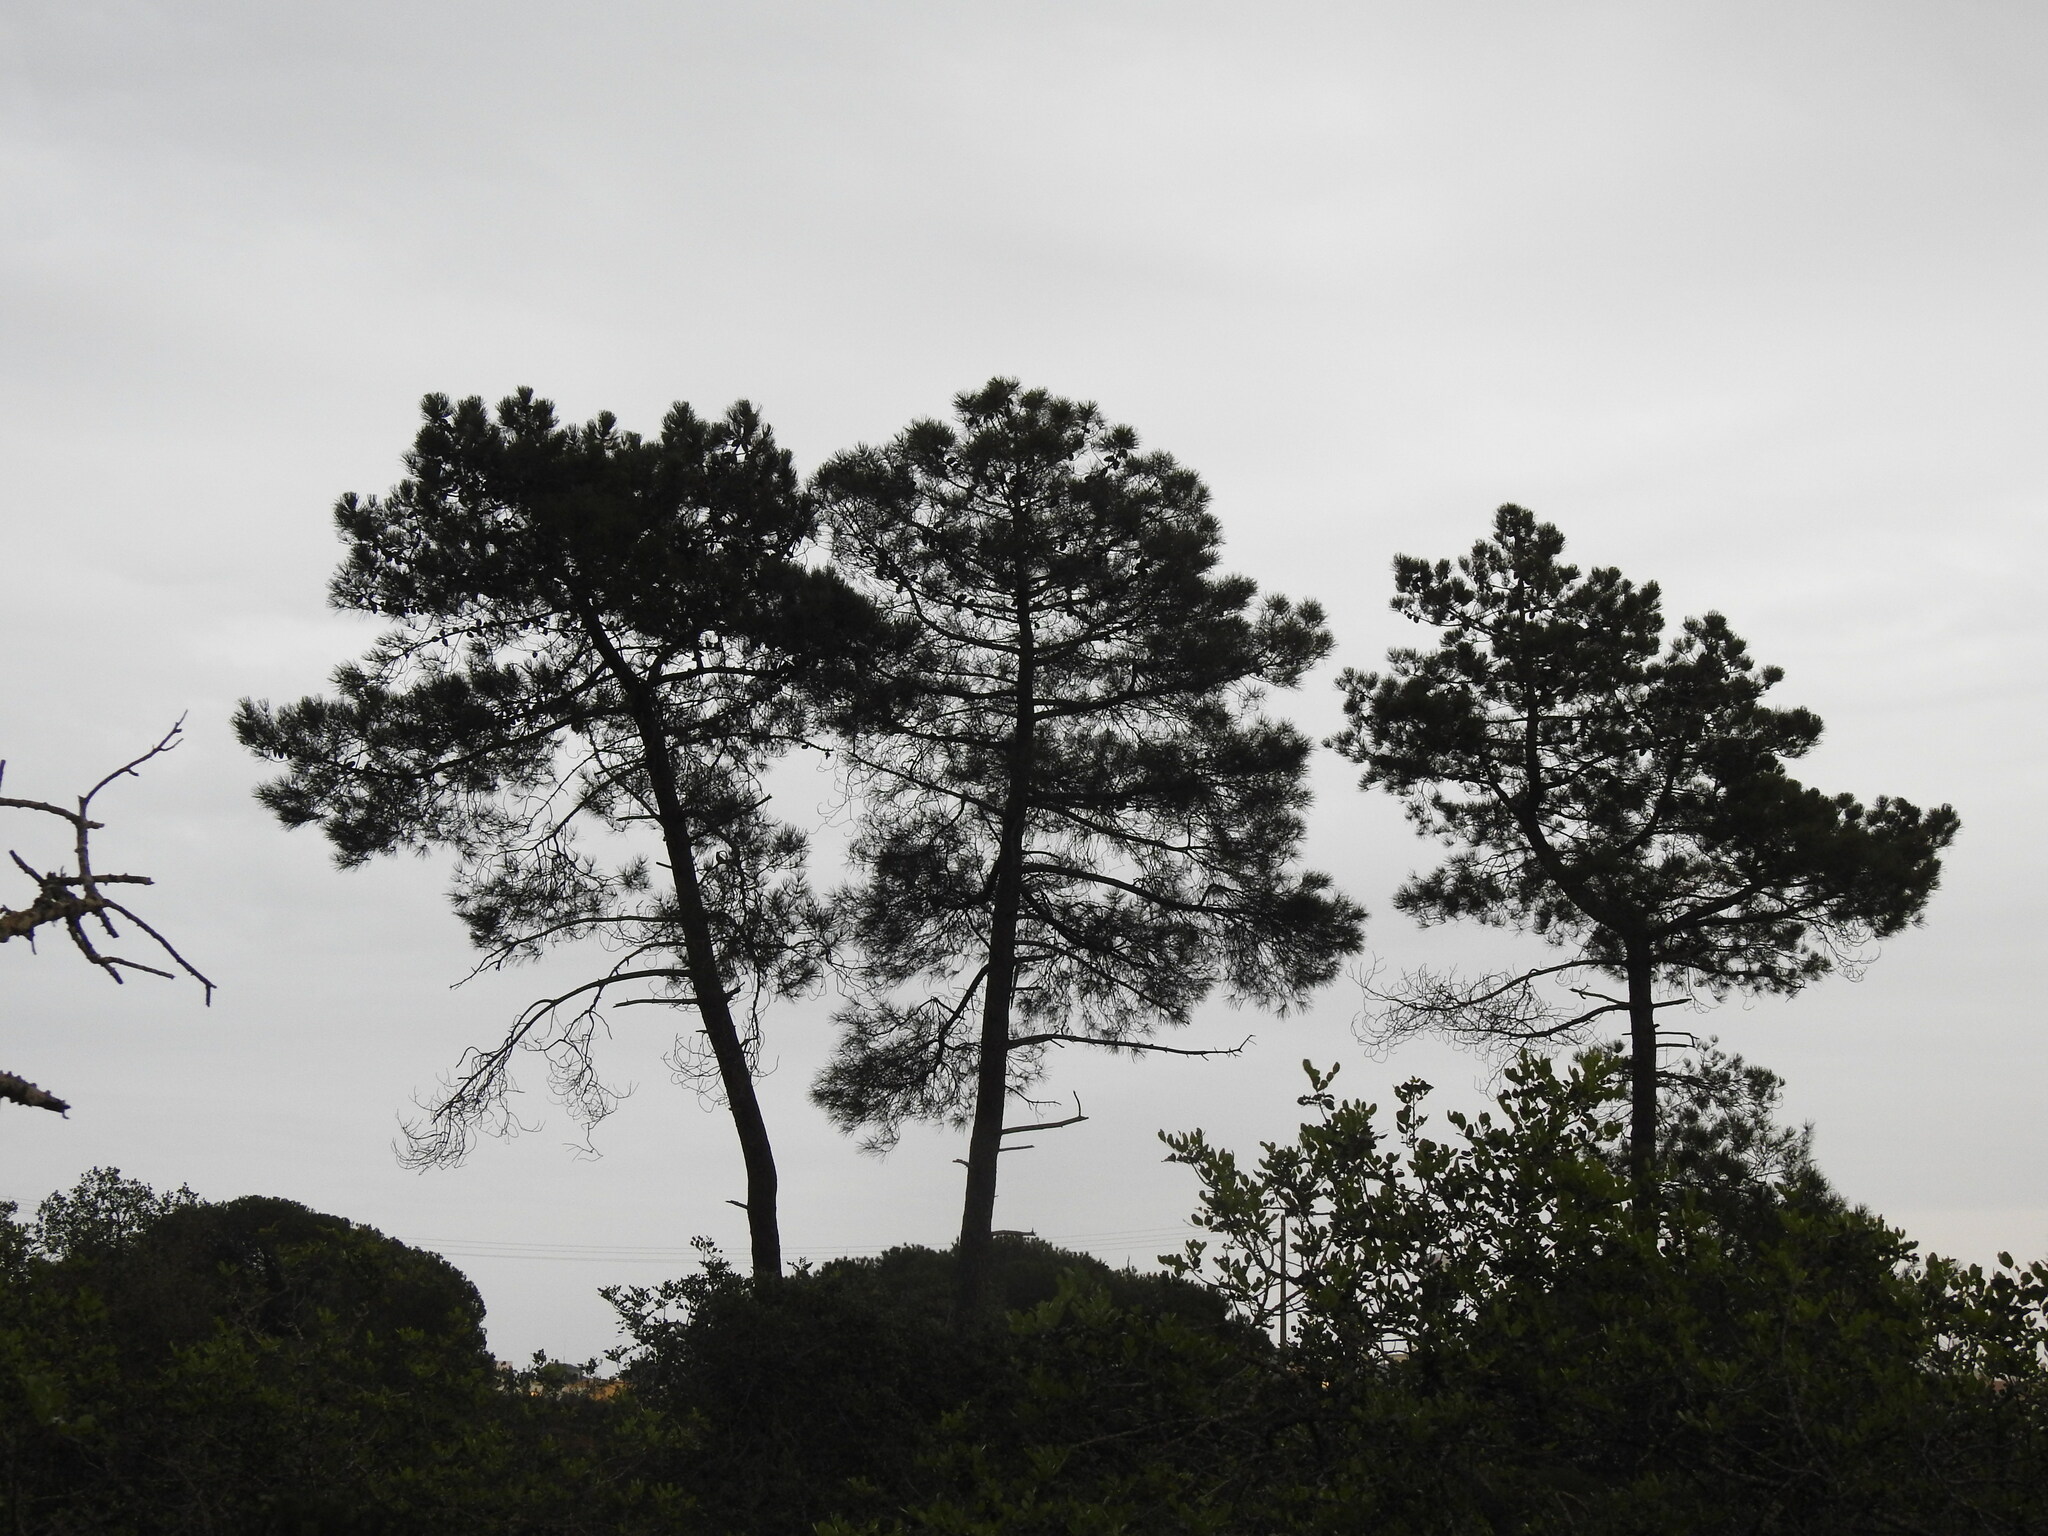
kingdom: Plantae
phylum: Tracheophyta
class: Pinopsida
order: Pinales
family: Pinaceae
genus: Pinus
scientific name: Pinus pinaster
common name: Maritime pine
